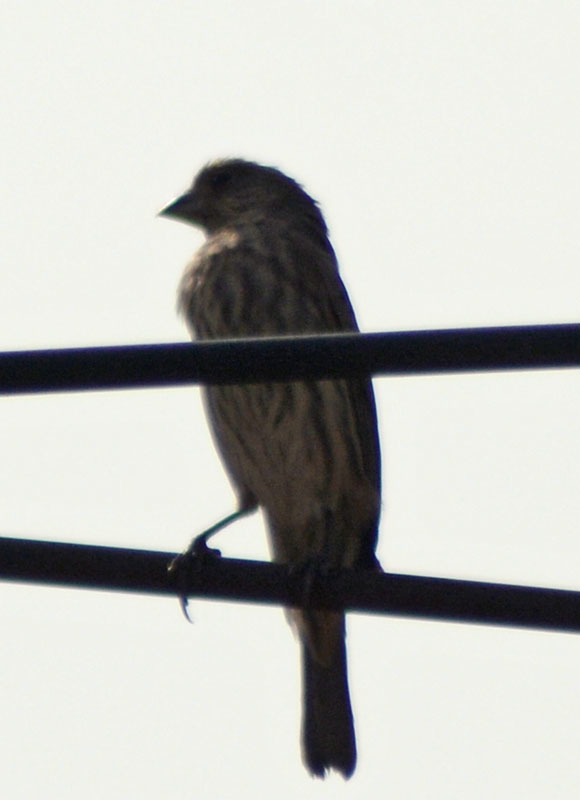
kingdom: Animalia
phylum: Chordata
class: Aves
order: Passeriformes
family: Fringillidae
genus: Haemorhous
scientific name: Haemorhous mexicanus
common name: House finch
